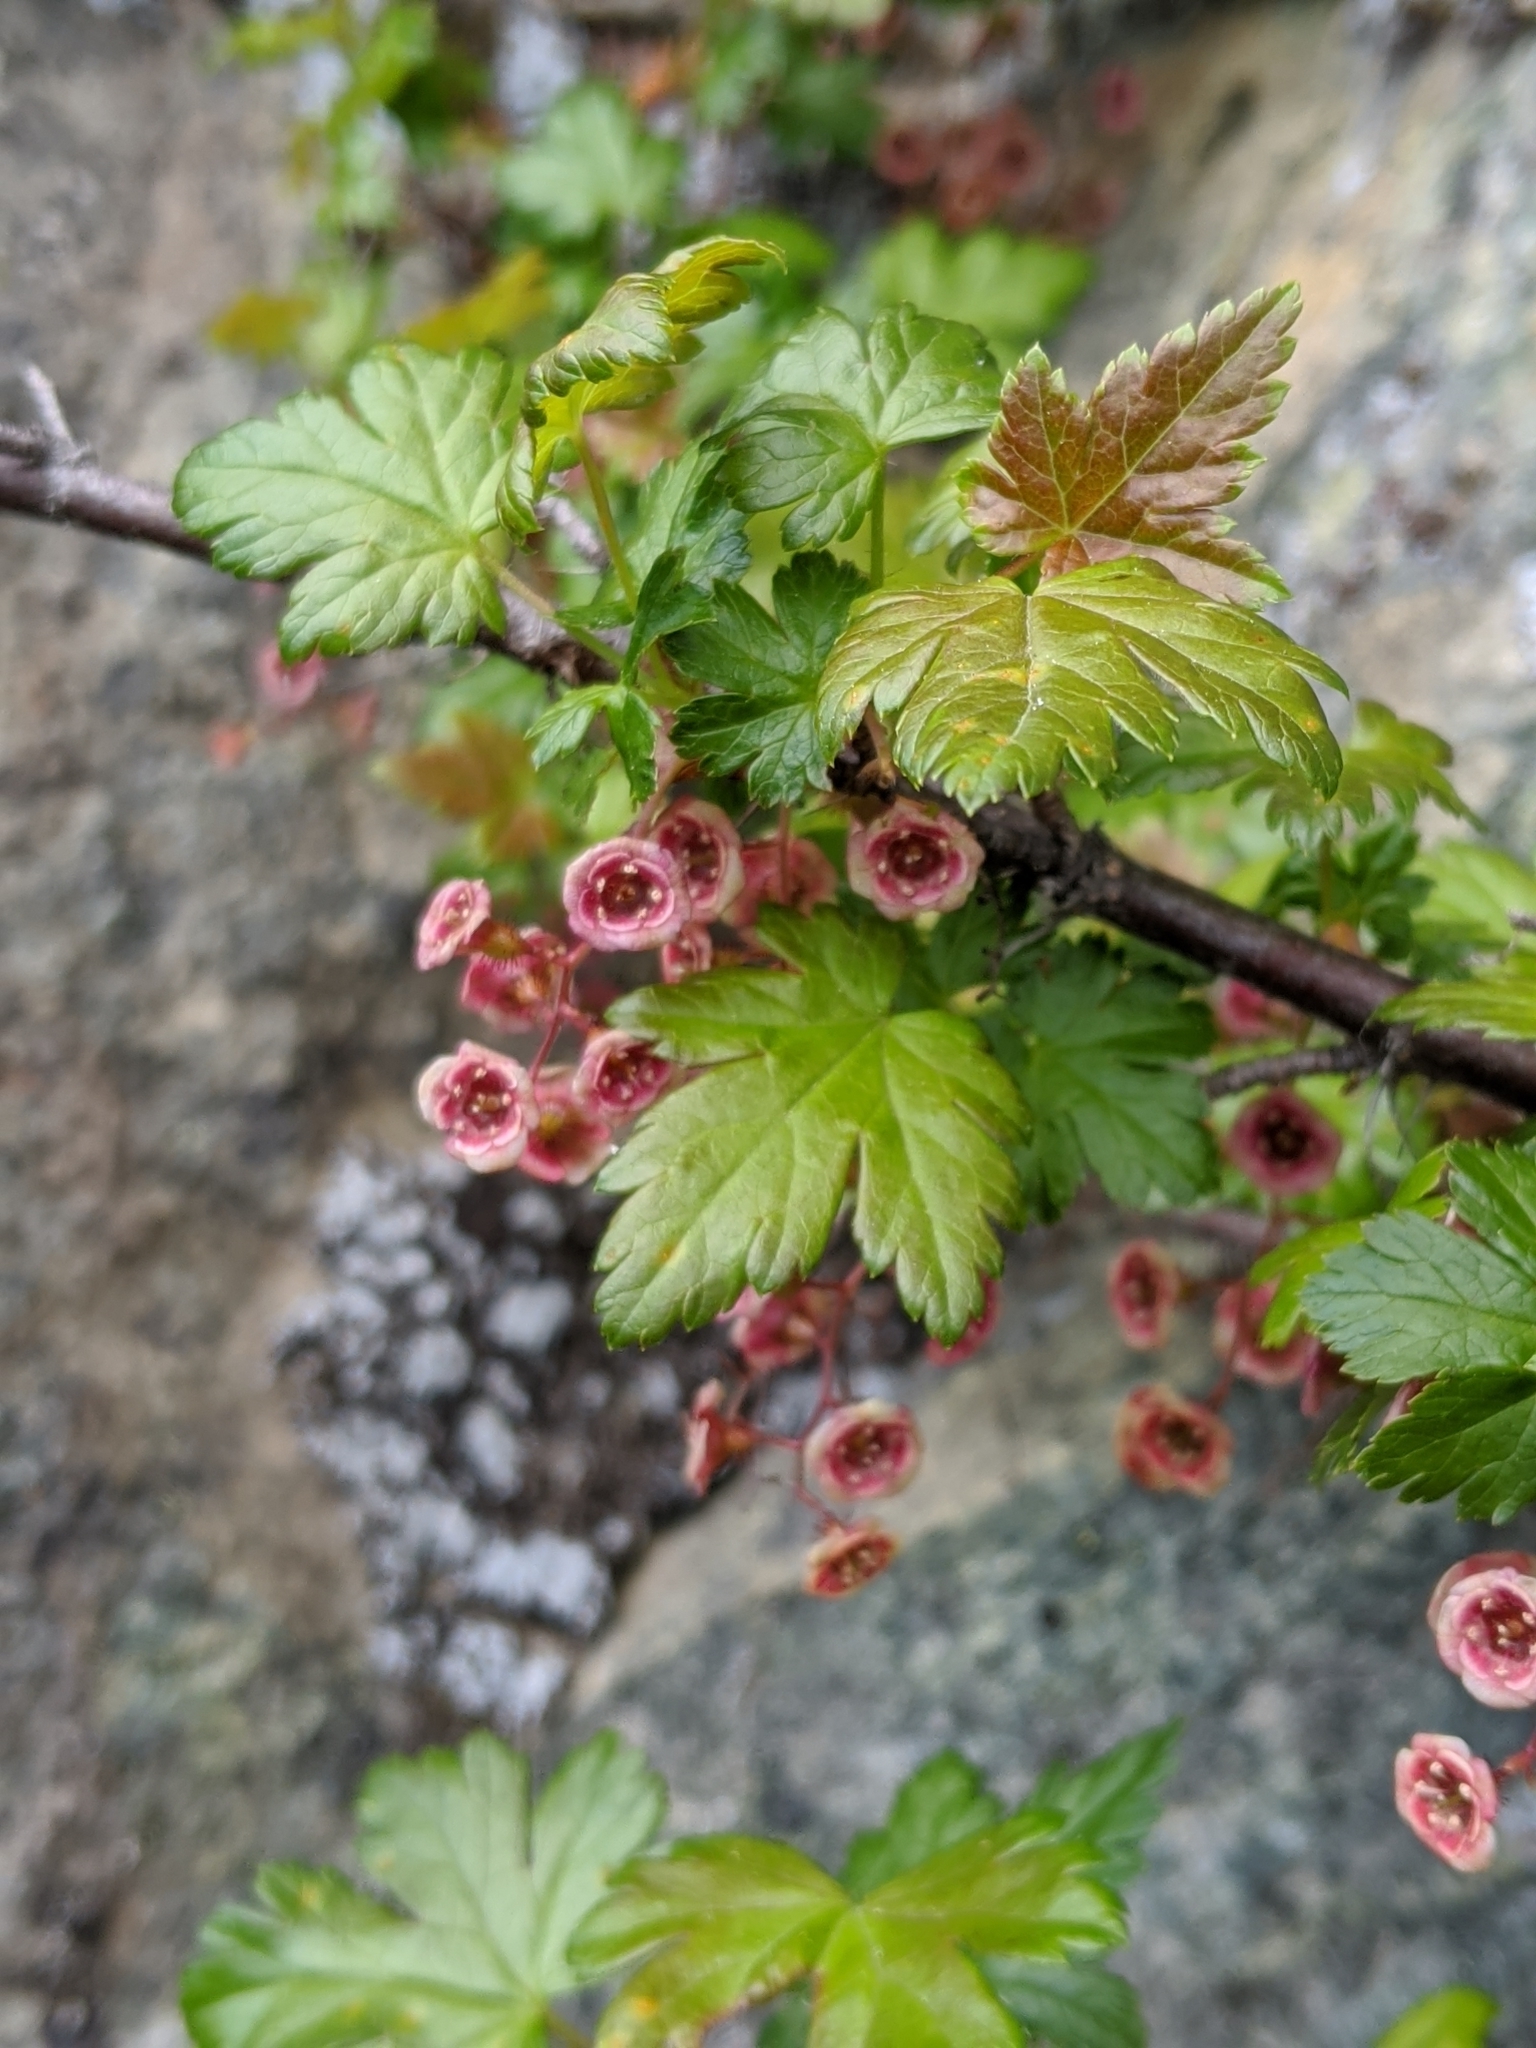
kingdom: Plantae
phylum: Tracheophyta
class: Magnoliopsida
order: Saxifragales
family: Grossulariaceae
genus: Ribes
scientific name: Ribes lacustre
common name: Black gooseberry
